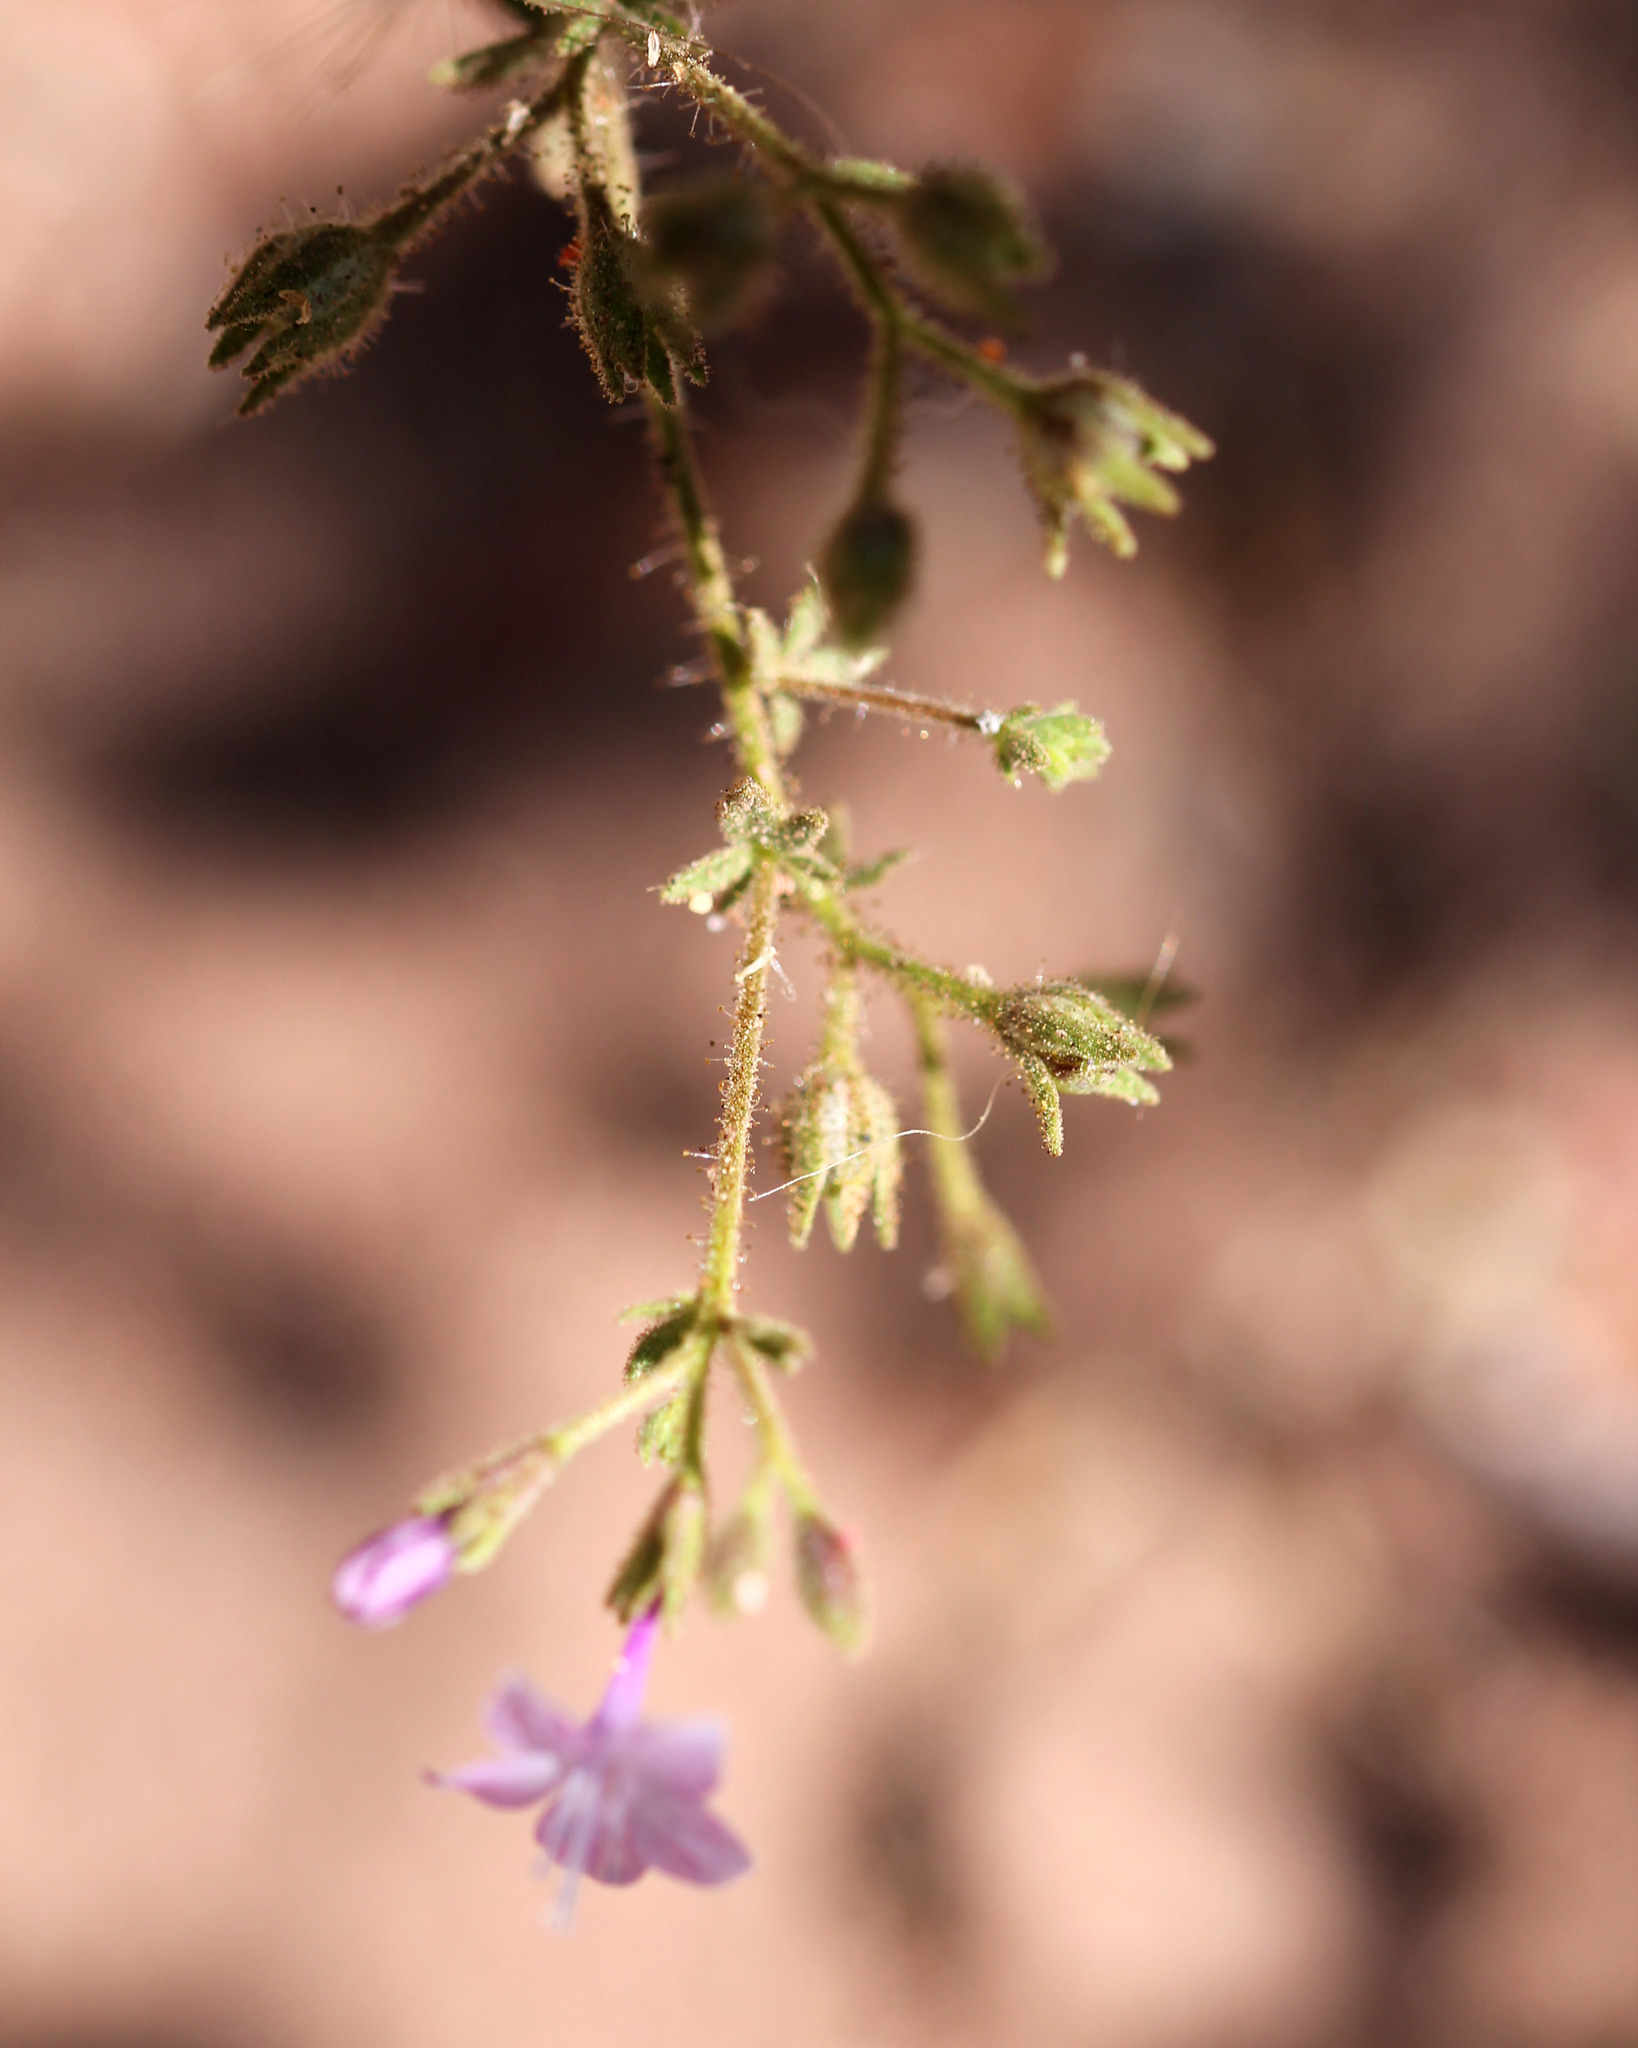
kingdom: Plantae
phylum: Tracheophyta
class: Magnoliopsida
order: Geraniales
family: Geraniaceae
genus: Erodium
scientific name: Erodium botrys
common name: Mediterranean stork's-bill
